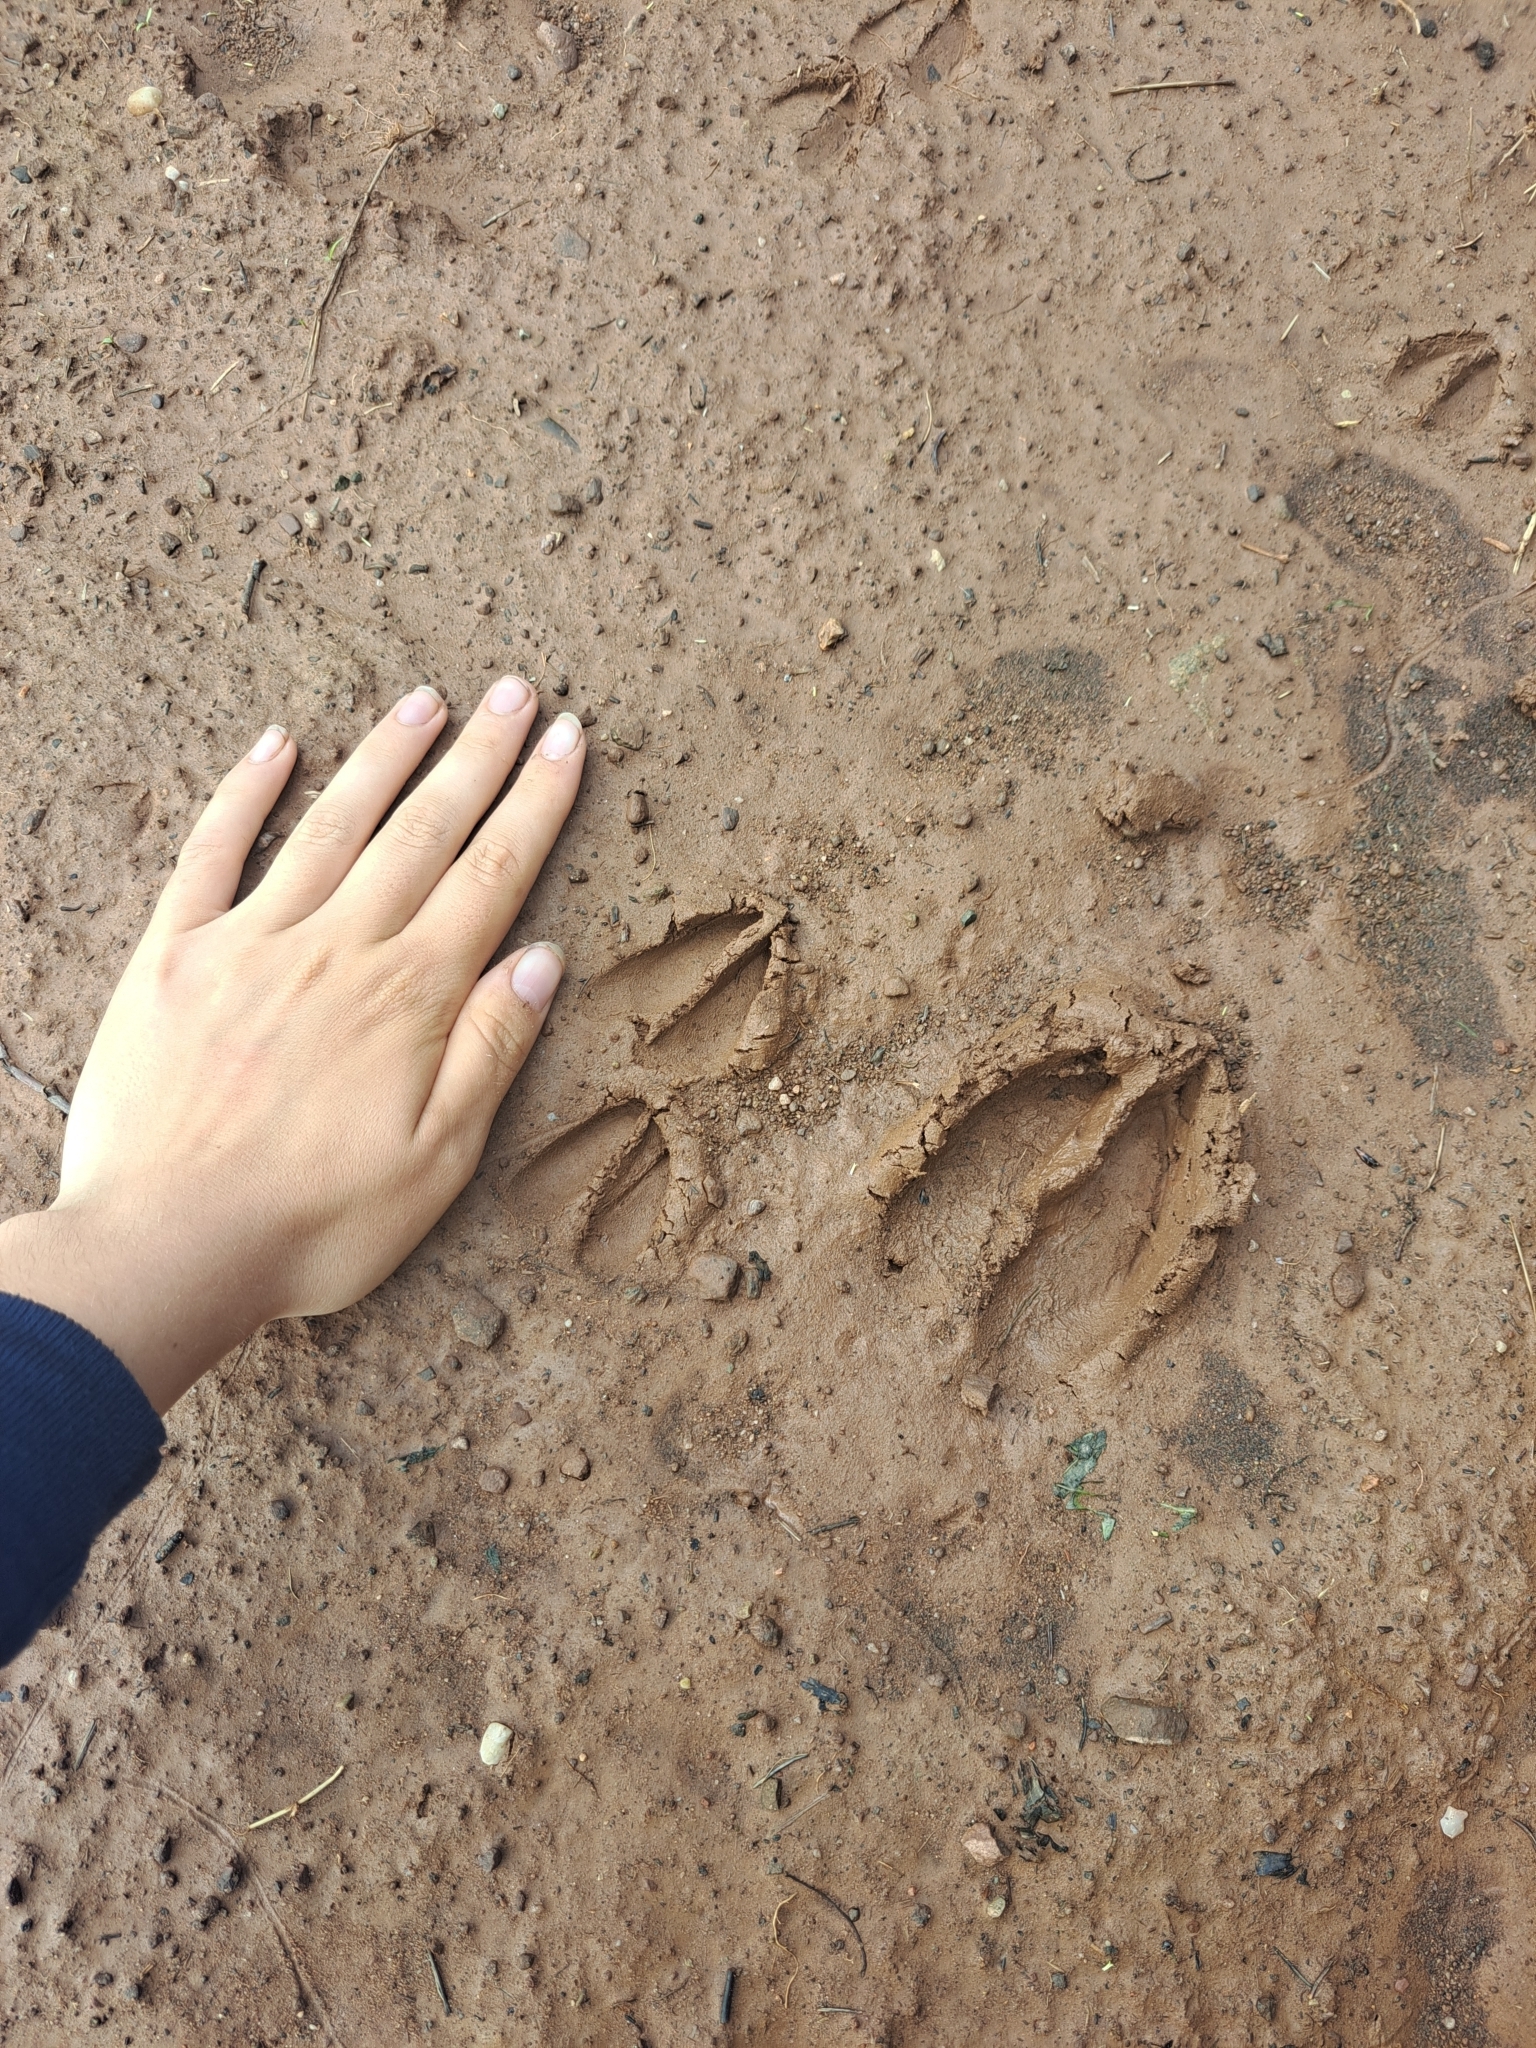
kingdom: Animalia
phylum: Chordata
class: Mammalia
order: Artiodactyla
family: Cervidae
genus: Odocoileus
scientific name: Odocoileus virginianus
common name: White-tailed deer
